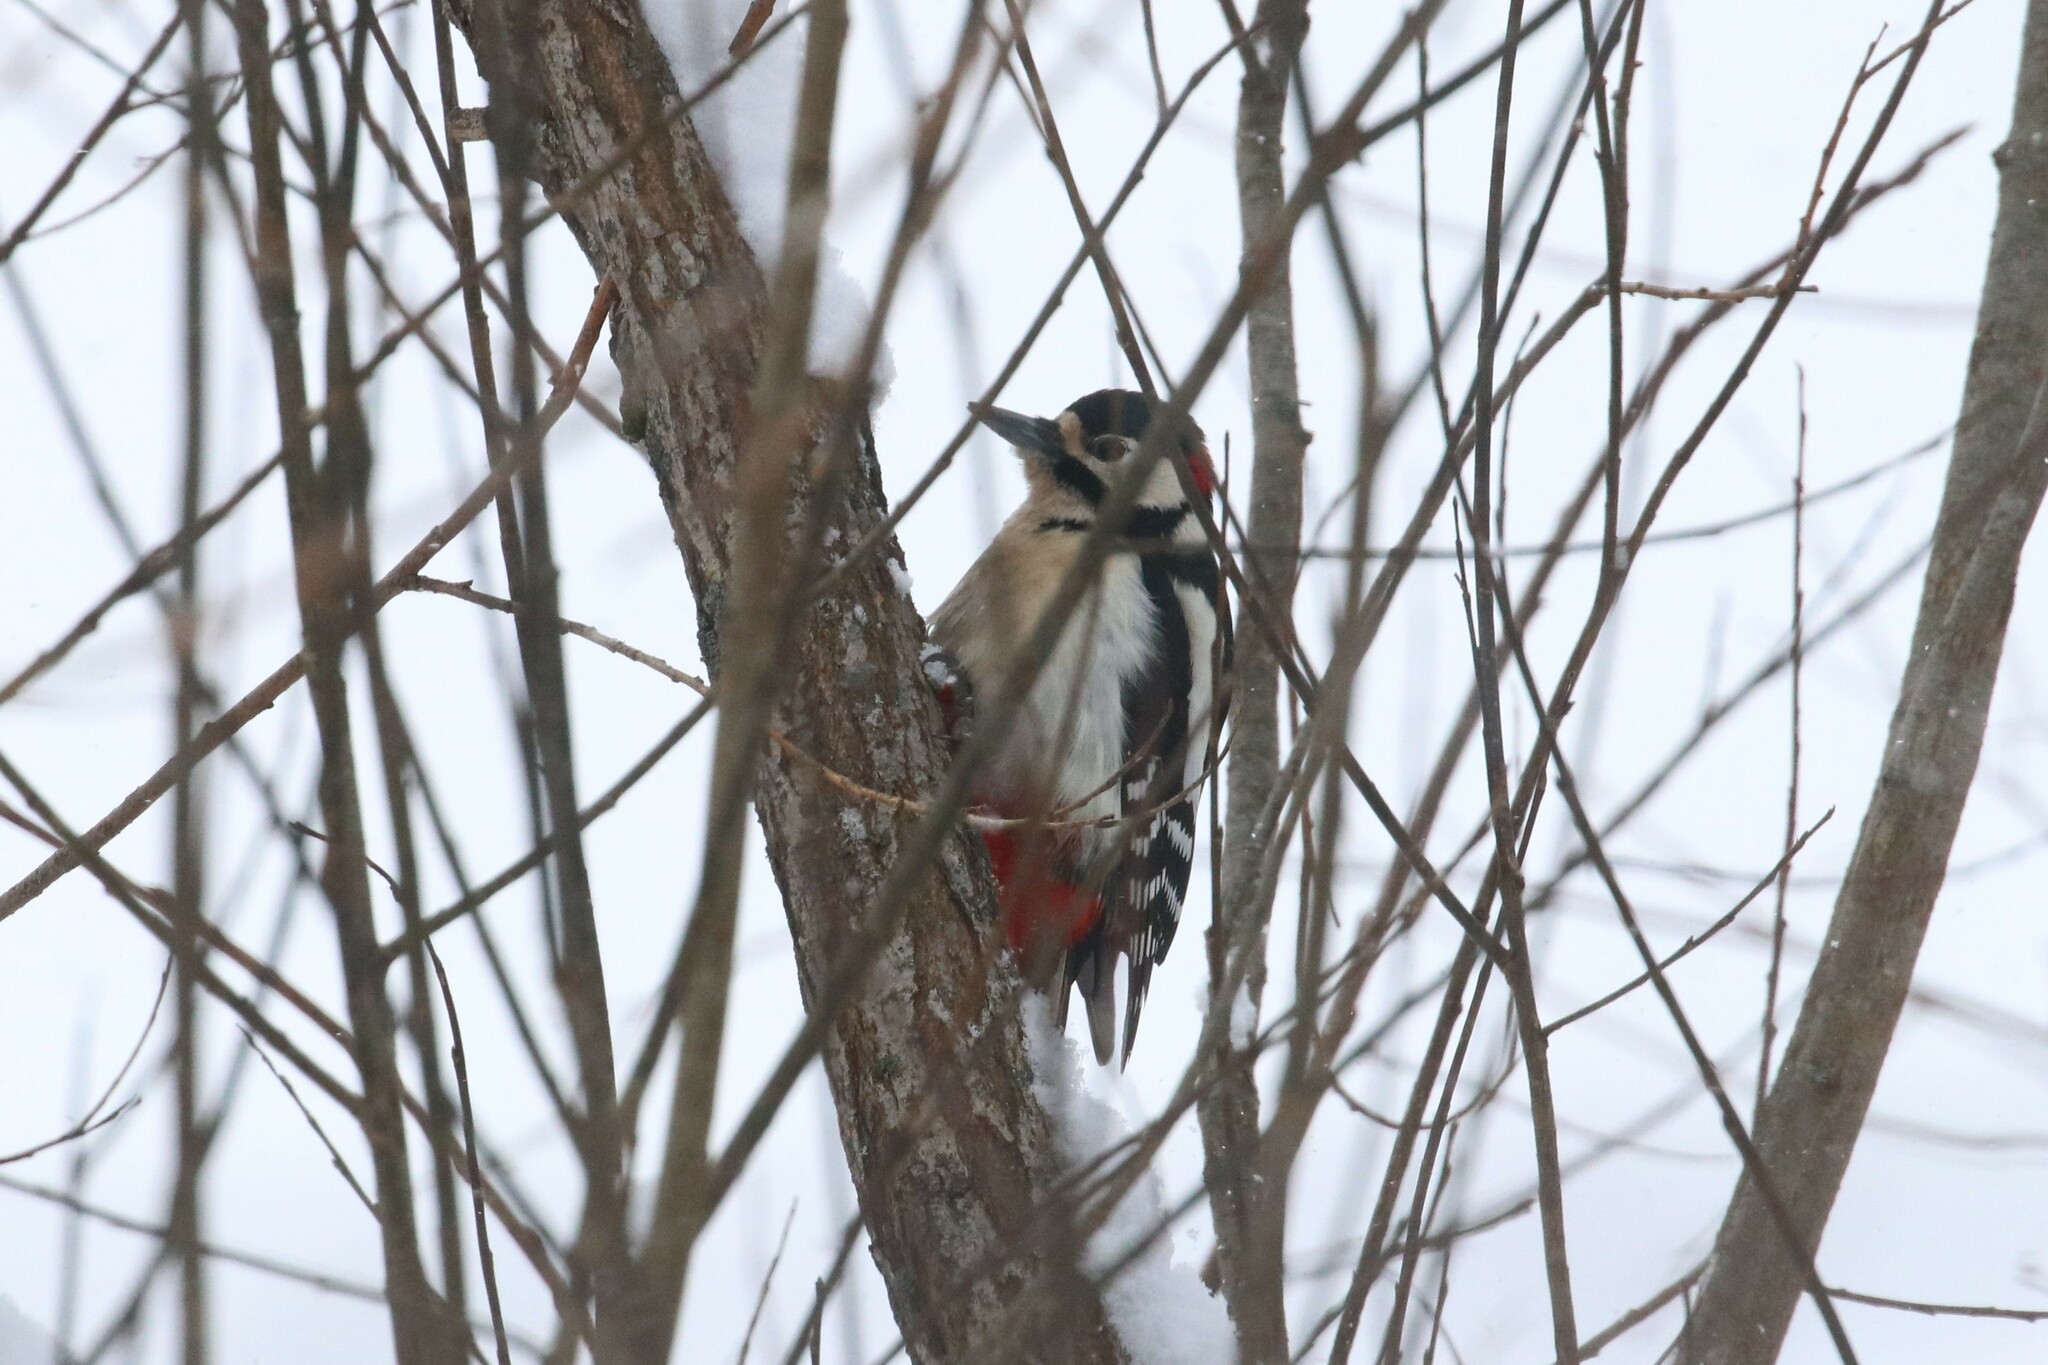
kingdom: Animalia
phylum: Chordata
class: Aves
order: Piciformes
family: Picidae
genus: Dendrocopos
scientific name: Dendrocopos major
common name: Great spotted woodpecker
